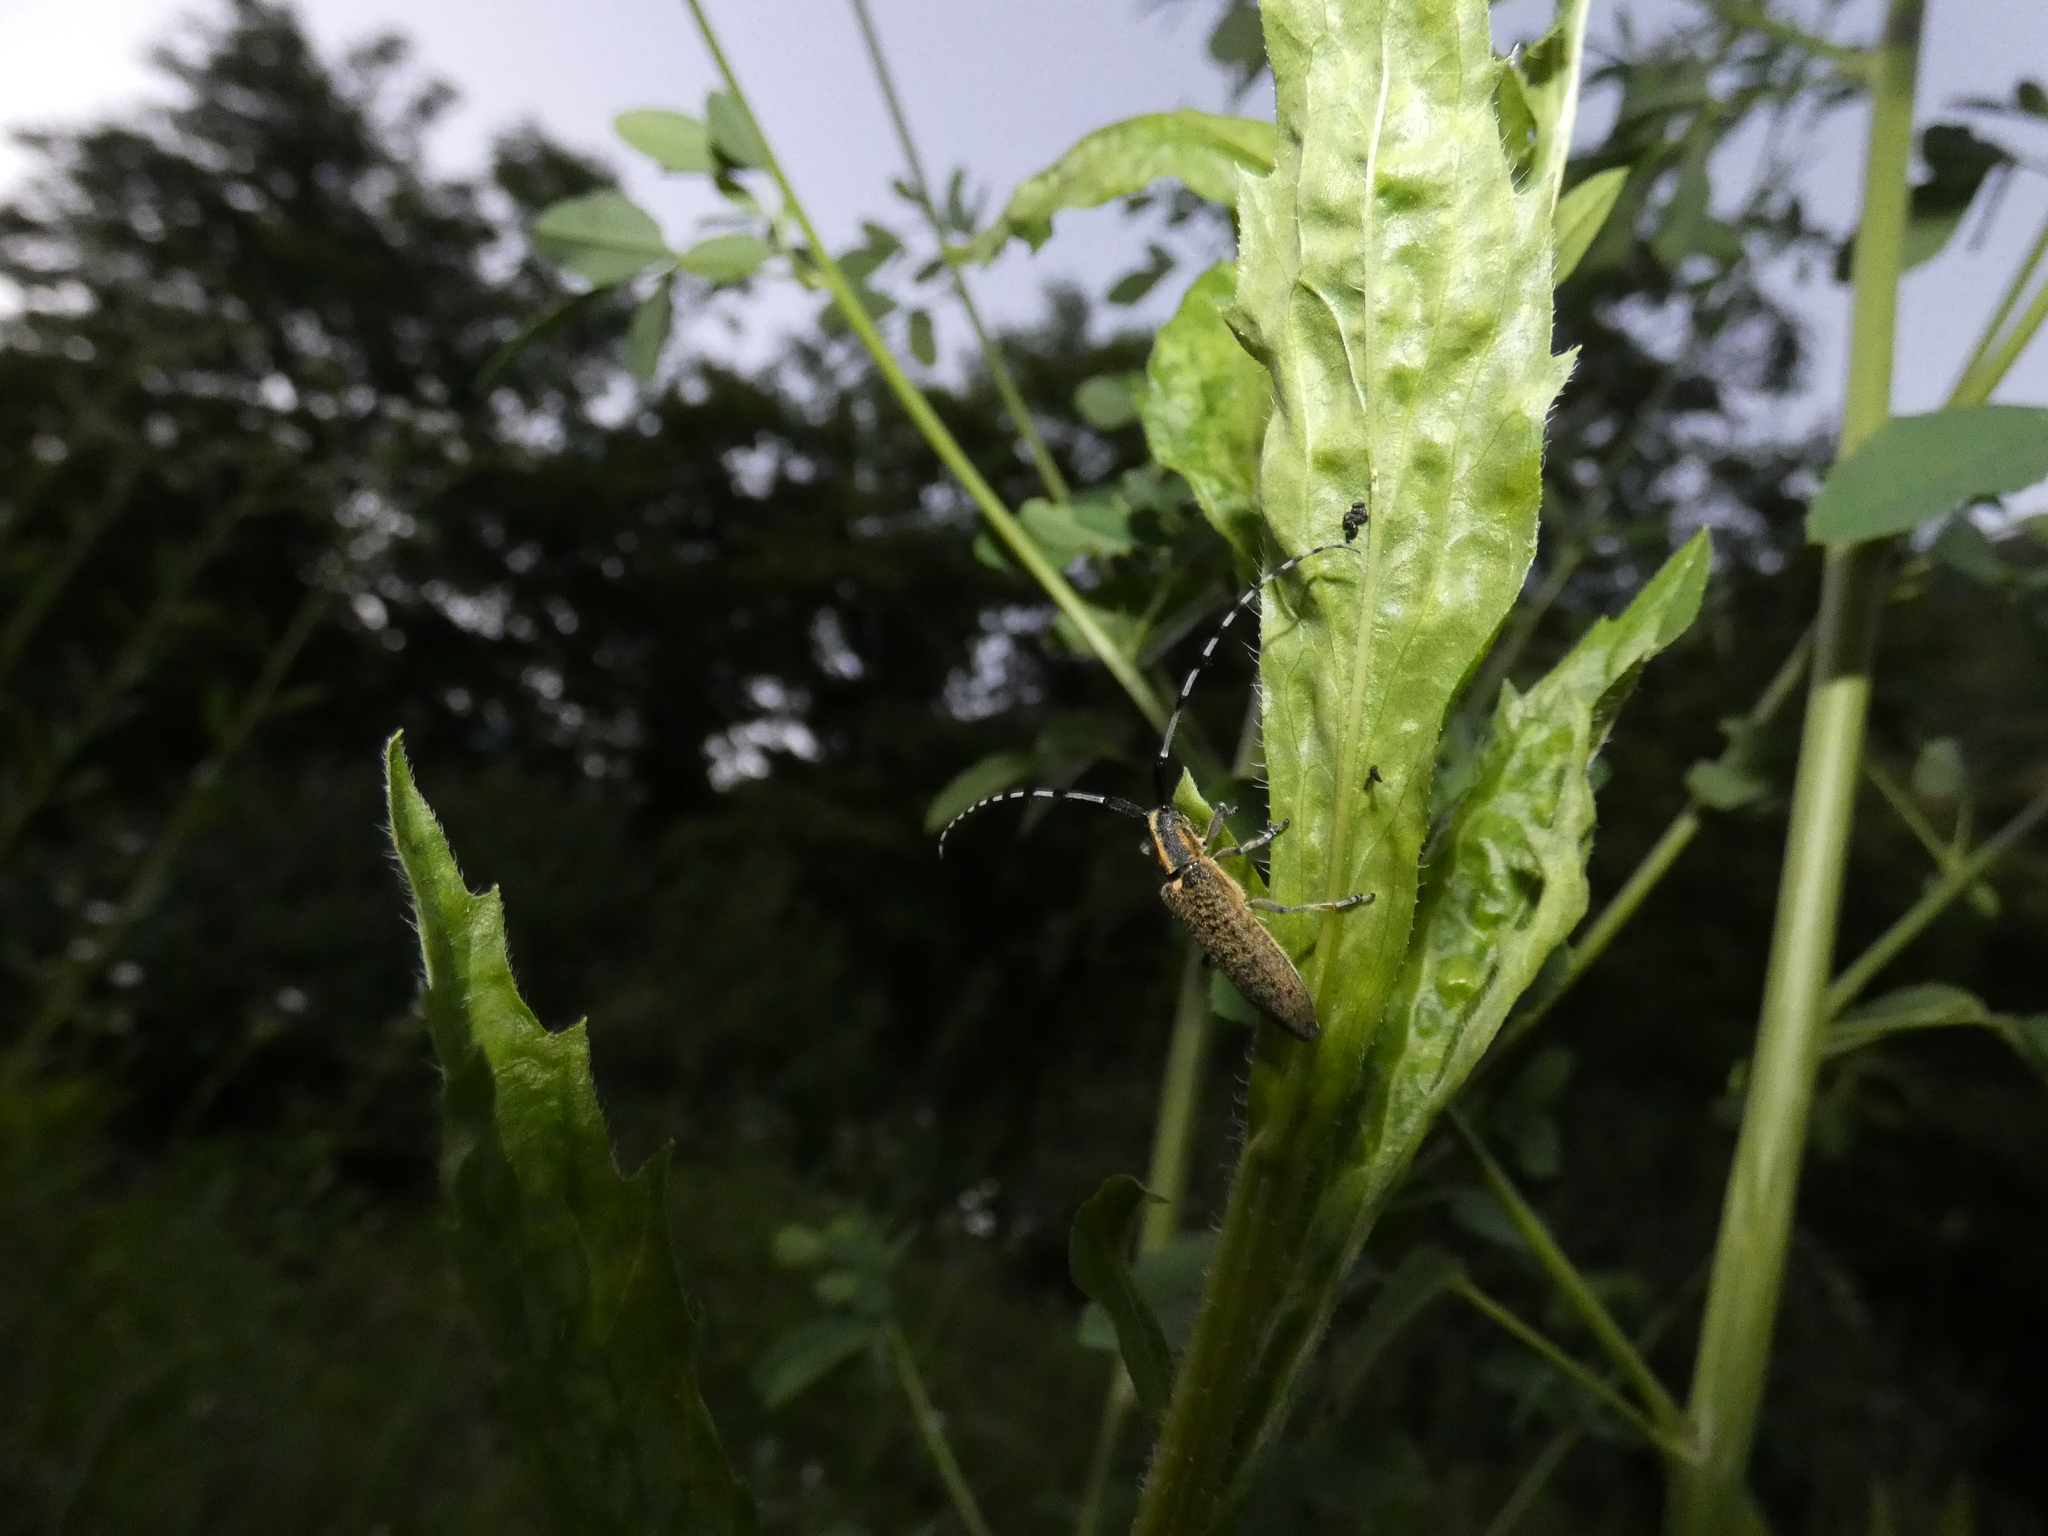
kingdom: Animalia
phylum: Arthropoda
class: Insecta
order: Coleoptera
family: Cerambycidae
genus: Agapanthia
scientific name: Agapanthia villosoviridescens
